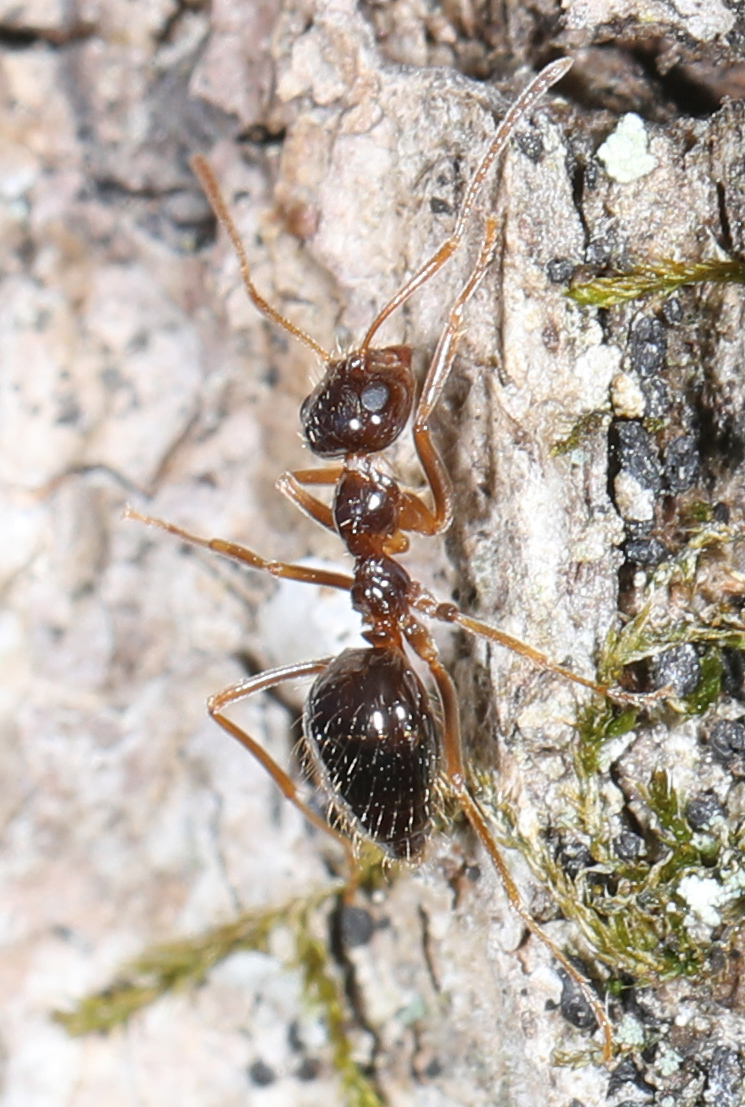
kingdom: Animalia
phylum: Arthropoda
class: Insecta
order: Hymenoptera
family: Formicidae
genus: Prenolepis
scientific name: Prenolepis imparis
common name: Small honey ant
